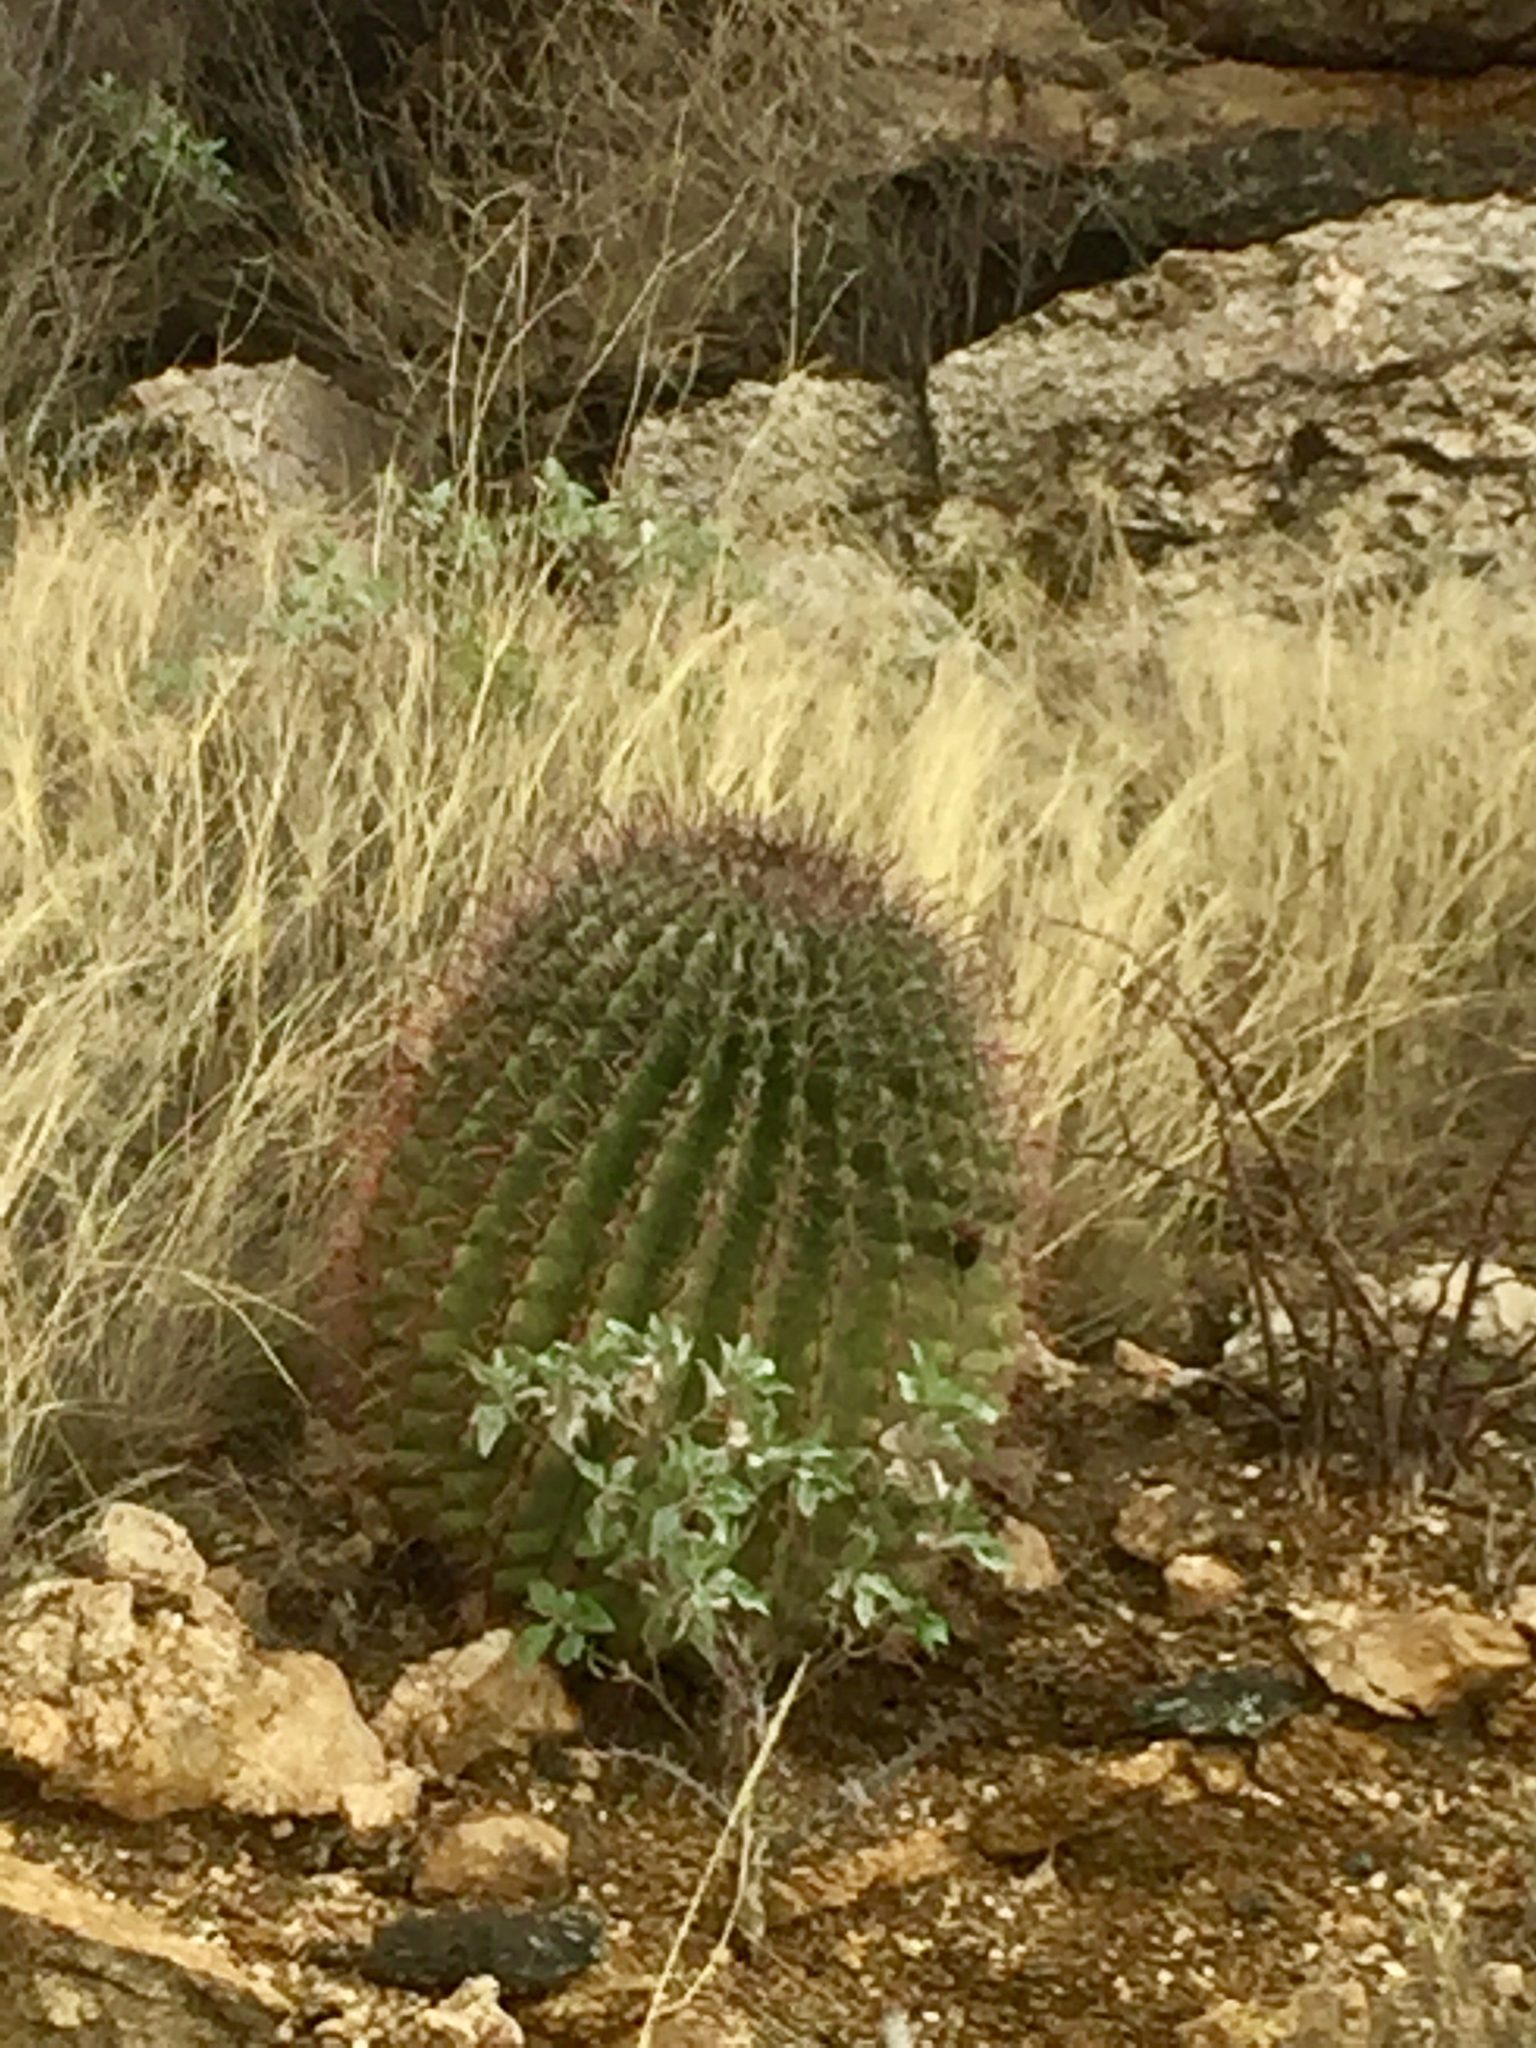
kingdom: Plantae
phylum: Tracheophyta
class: Magnoliopsida
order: Caryophyllales
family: Cactaceae
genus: Ferocactus
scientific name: Ferocactus wislizeni
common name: Candy barrel cactus
